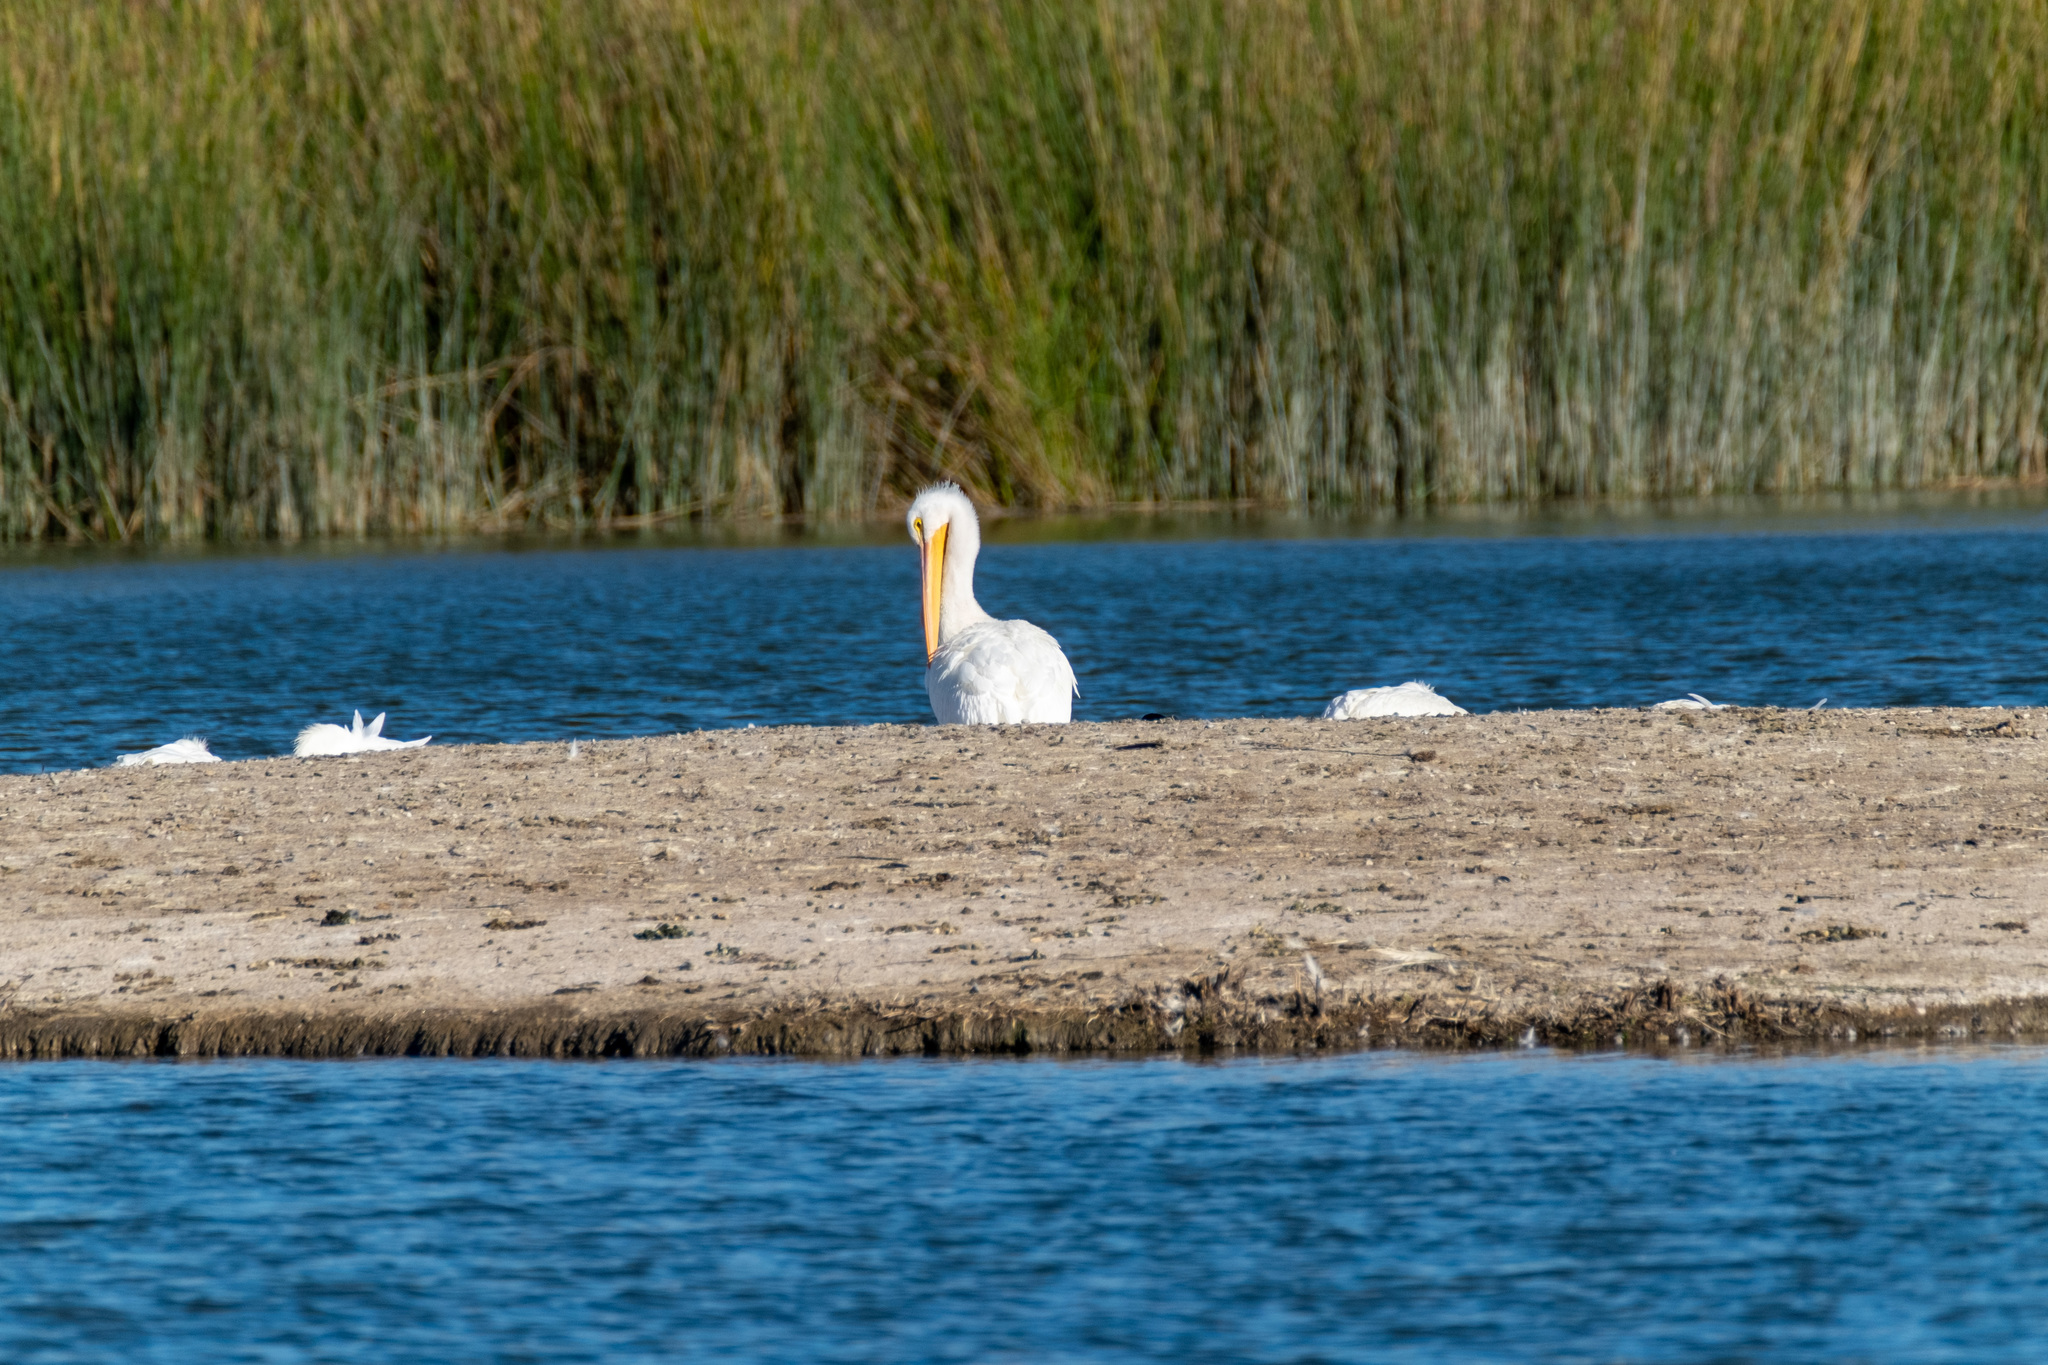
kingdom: Animalia
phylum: Chordata
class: Aves
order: Pelecaniformes
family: Pelecanidae
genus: Pelecanus
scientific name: Pelecanus erythrorhynchos
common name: American white pelican
